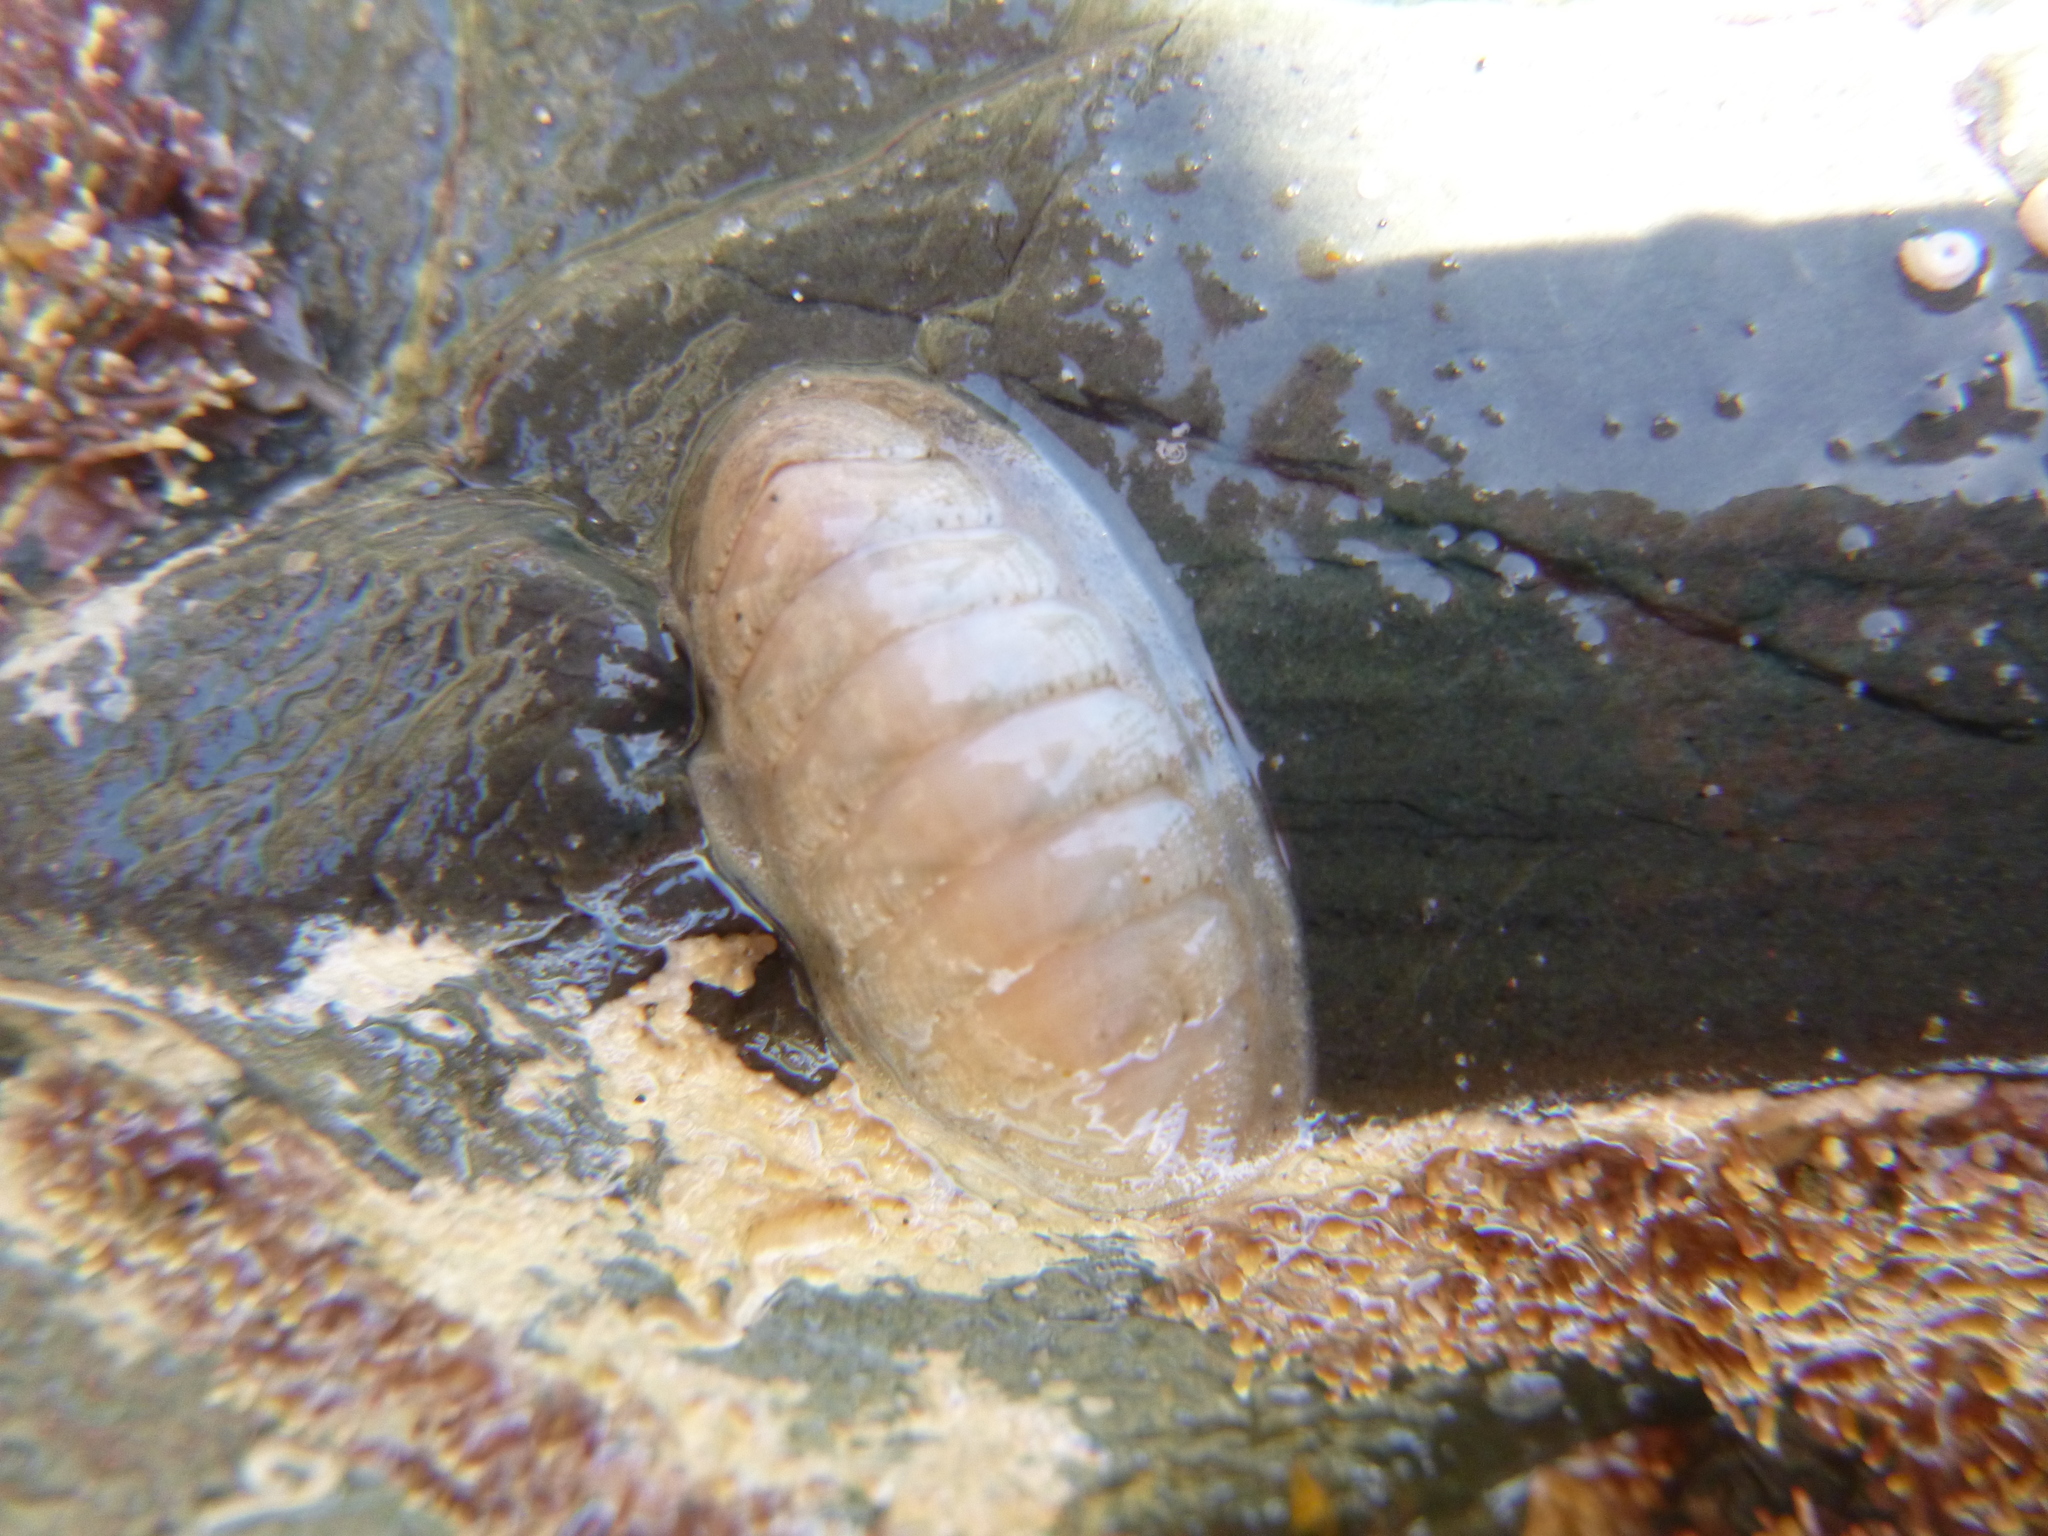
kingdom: Animalia
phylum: Mollusca
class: Polyplacophora
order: Chitonida
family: Ischnochitonidae
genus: Ischnochiton
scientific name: Ischnochiton maorianus
